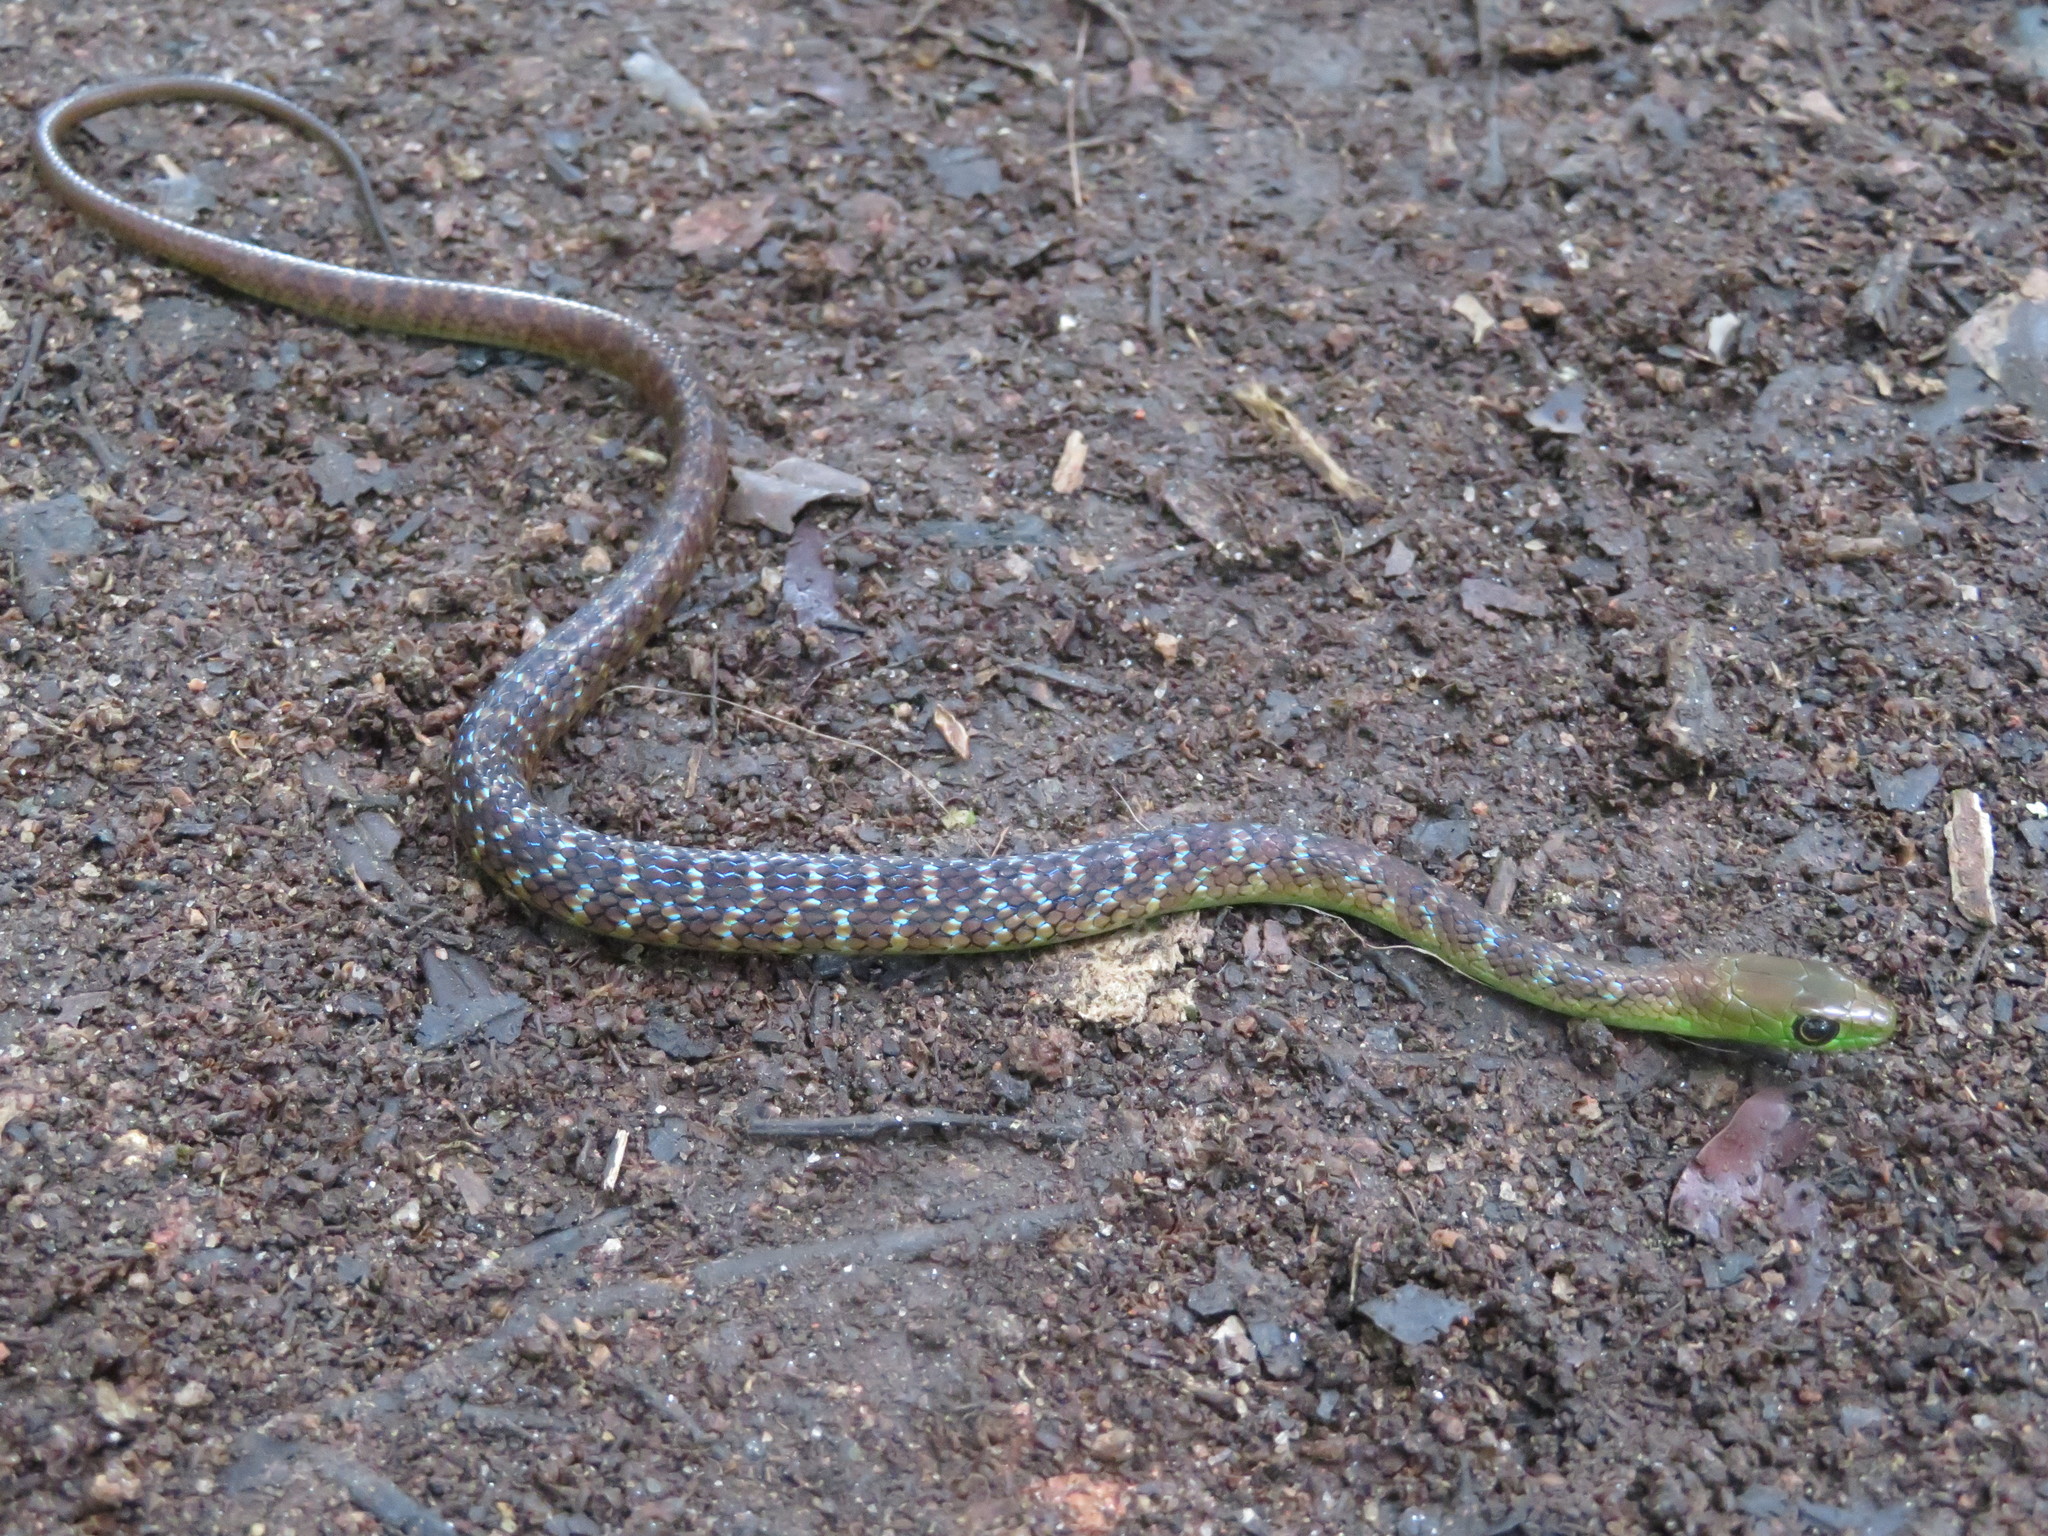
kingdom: Animalia
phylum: Chordata
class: Squamata
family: Colubridae
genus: Philothamnus
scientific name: Philothamnus macrops
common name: Large-eyed green snake
